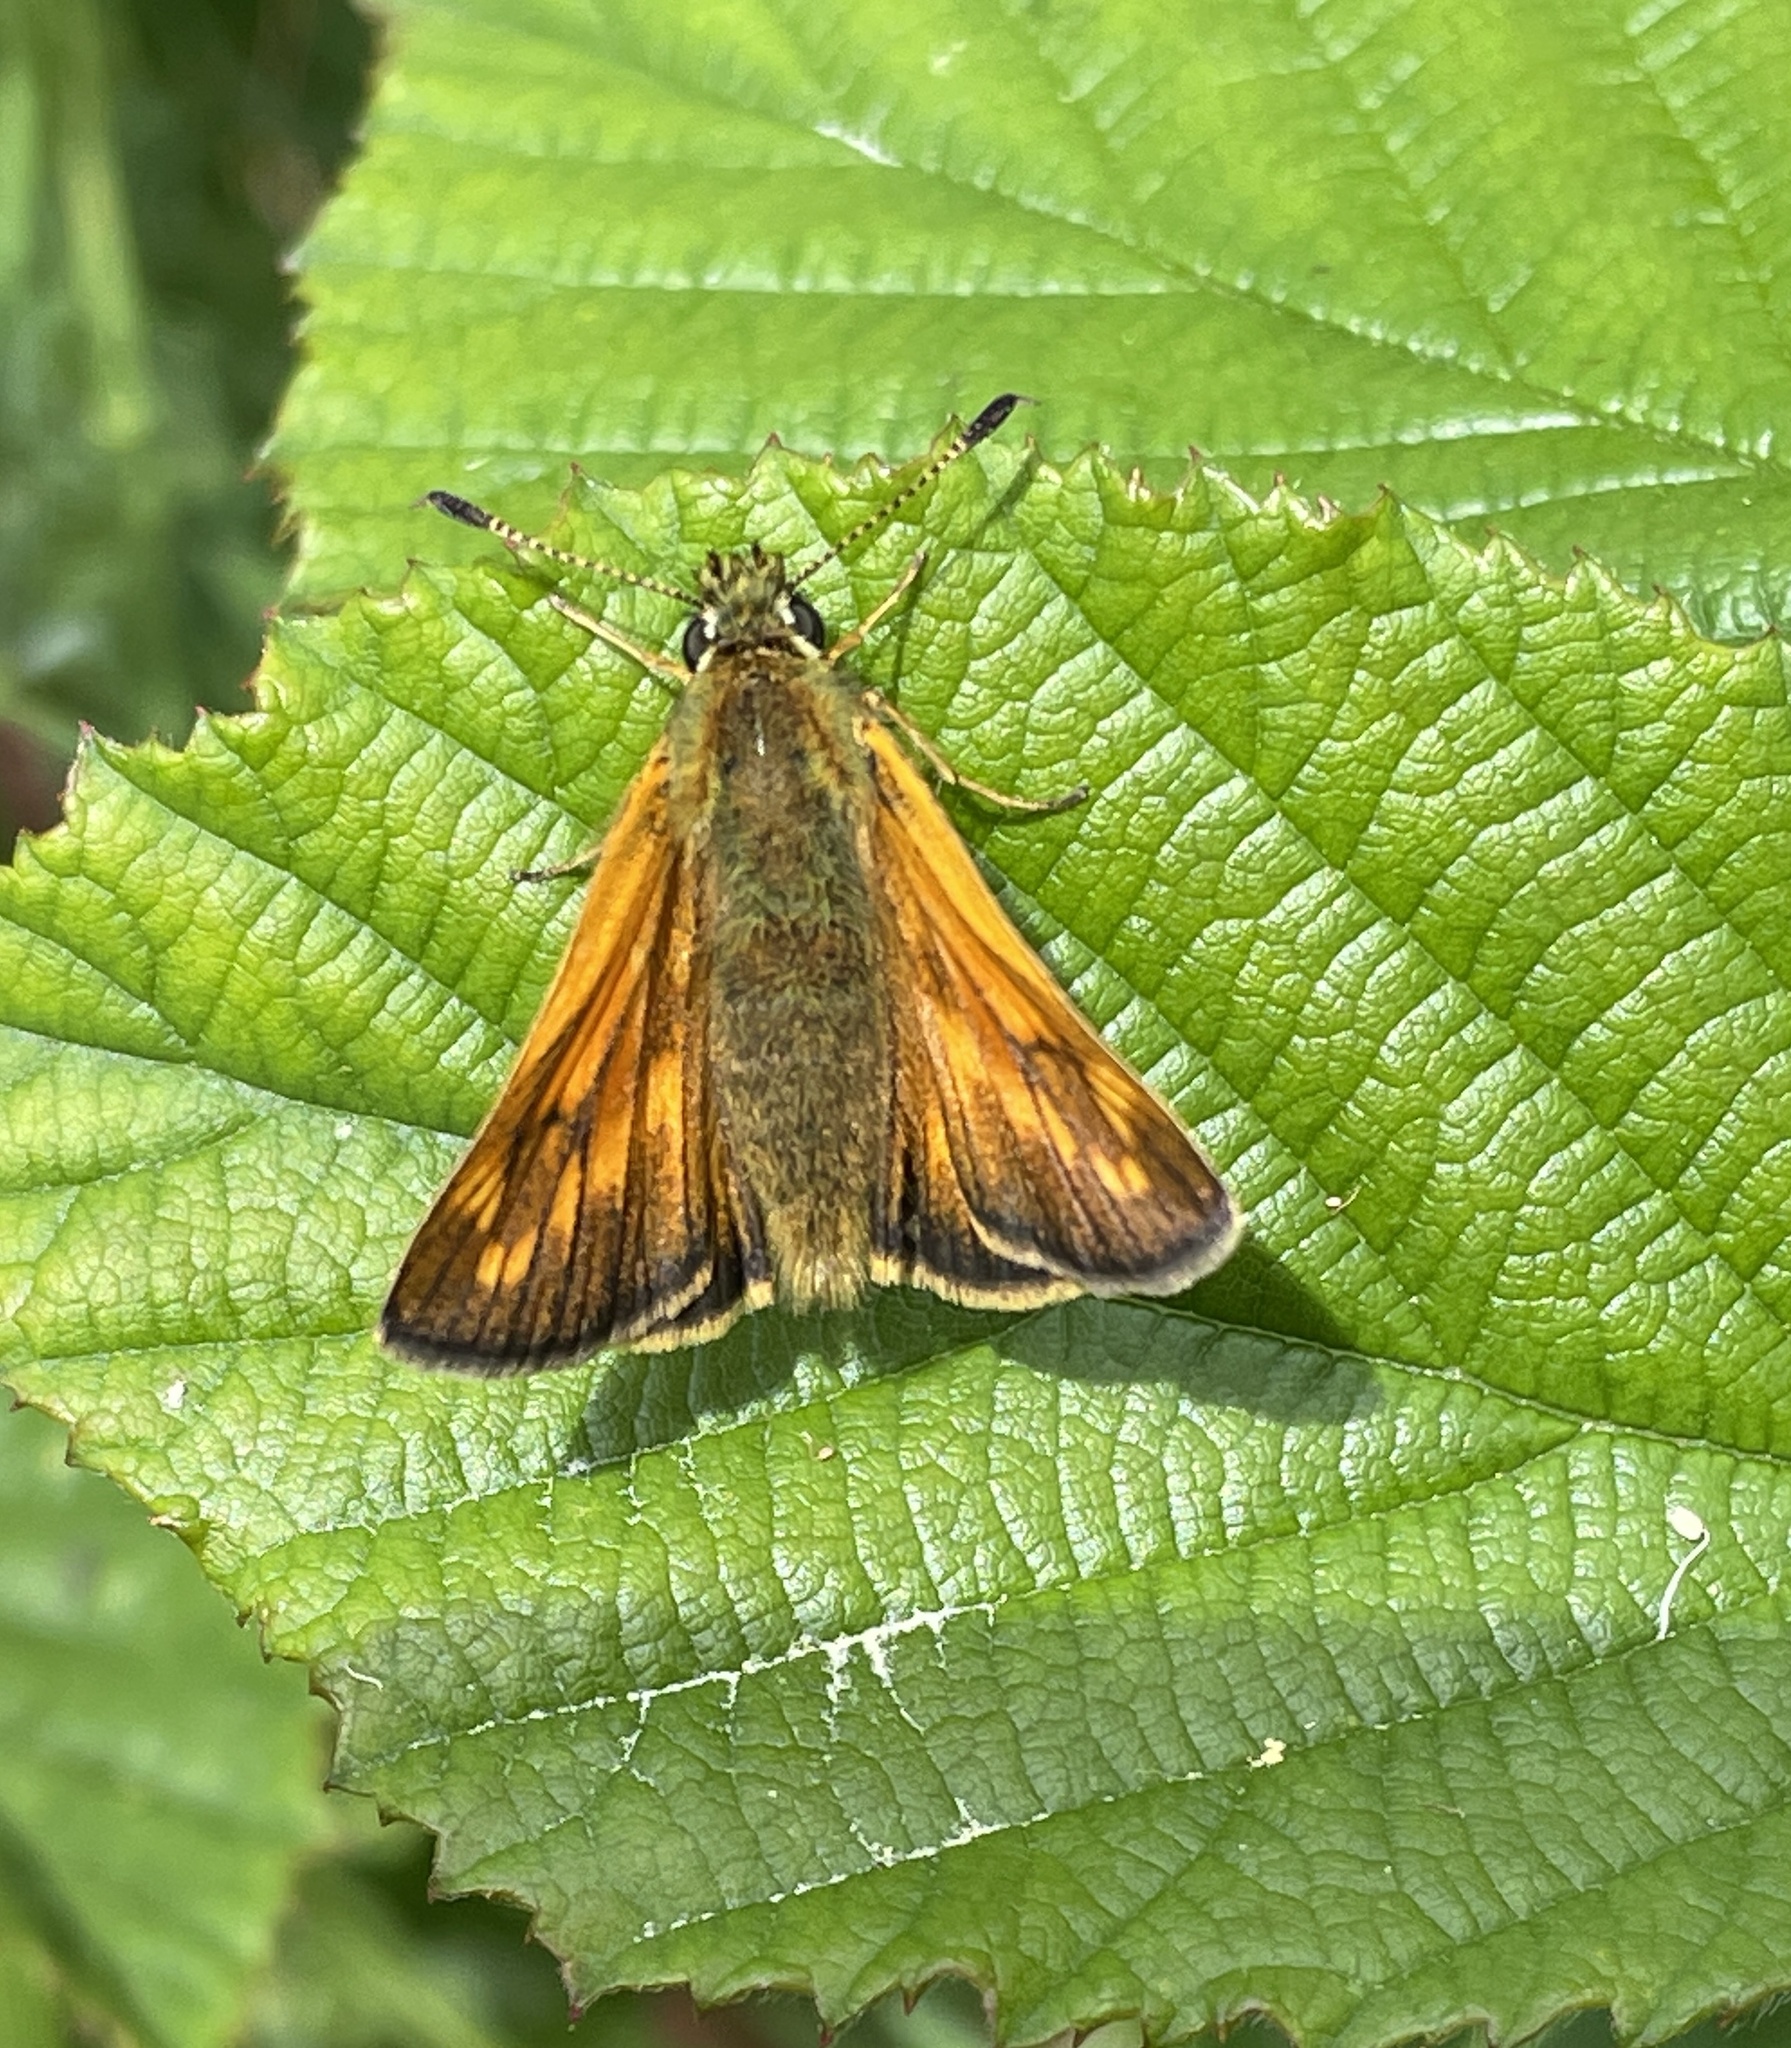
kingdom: Animalia
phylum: Arthropoda
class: Insecta
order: Lepidoptera
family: Hesperiidae
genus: Ochlodes
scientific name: Ochlodes venata
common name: Large skipper
